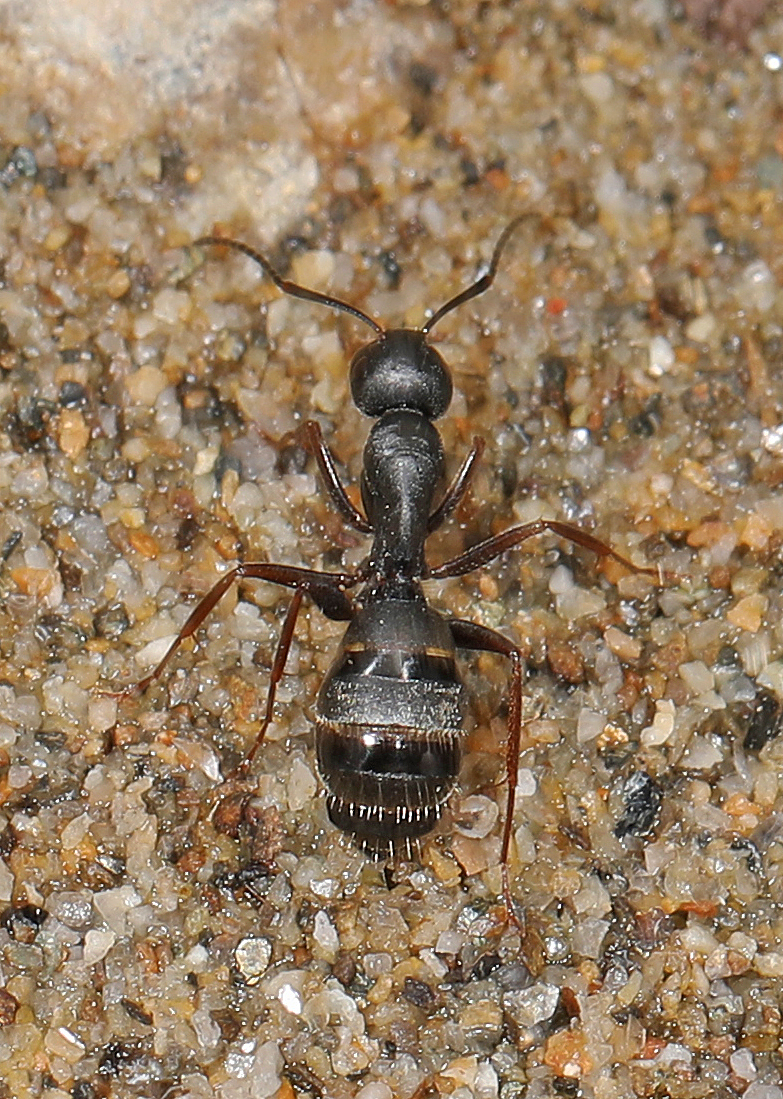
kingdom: Animalia
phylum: Arthropoda
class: Insecta
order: Hymenoptera
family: Formicidae
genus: Camponotus
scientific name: Camponotus modoc
